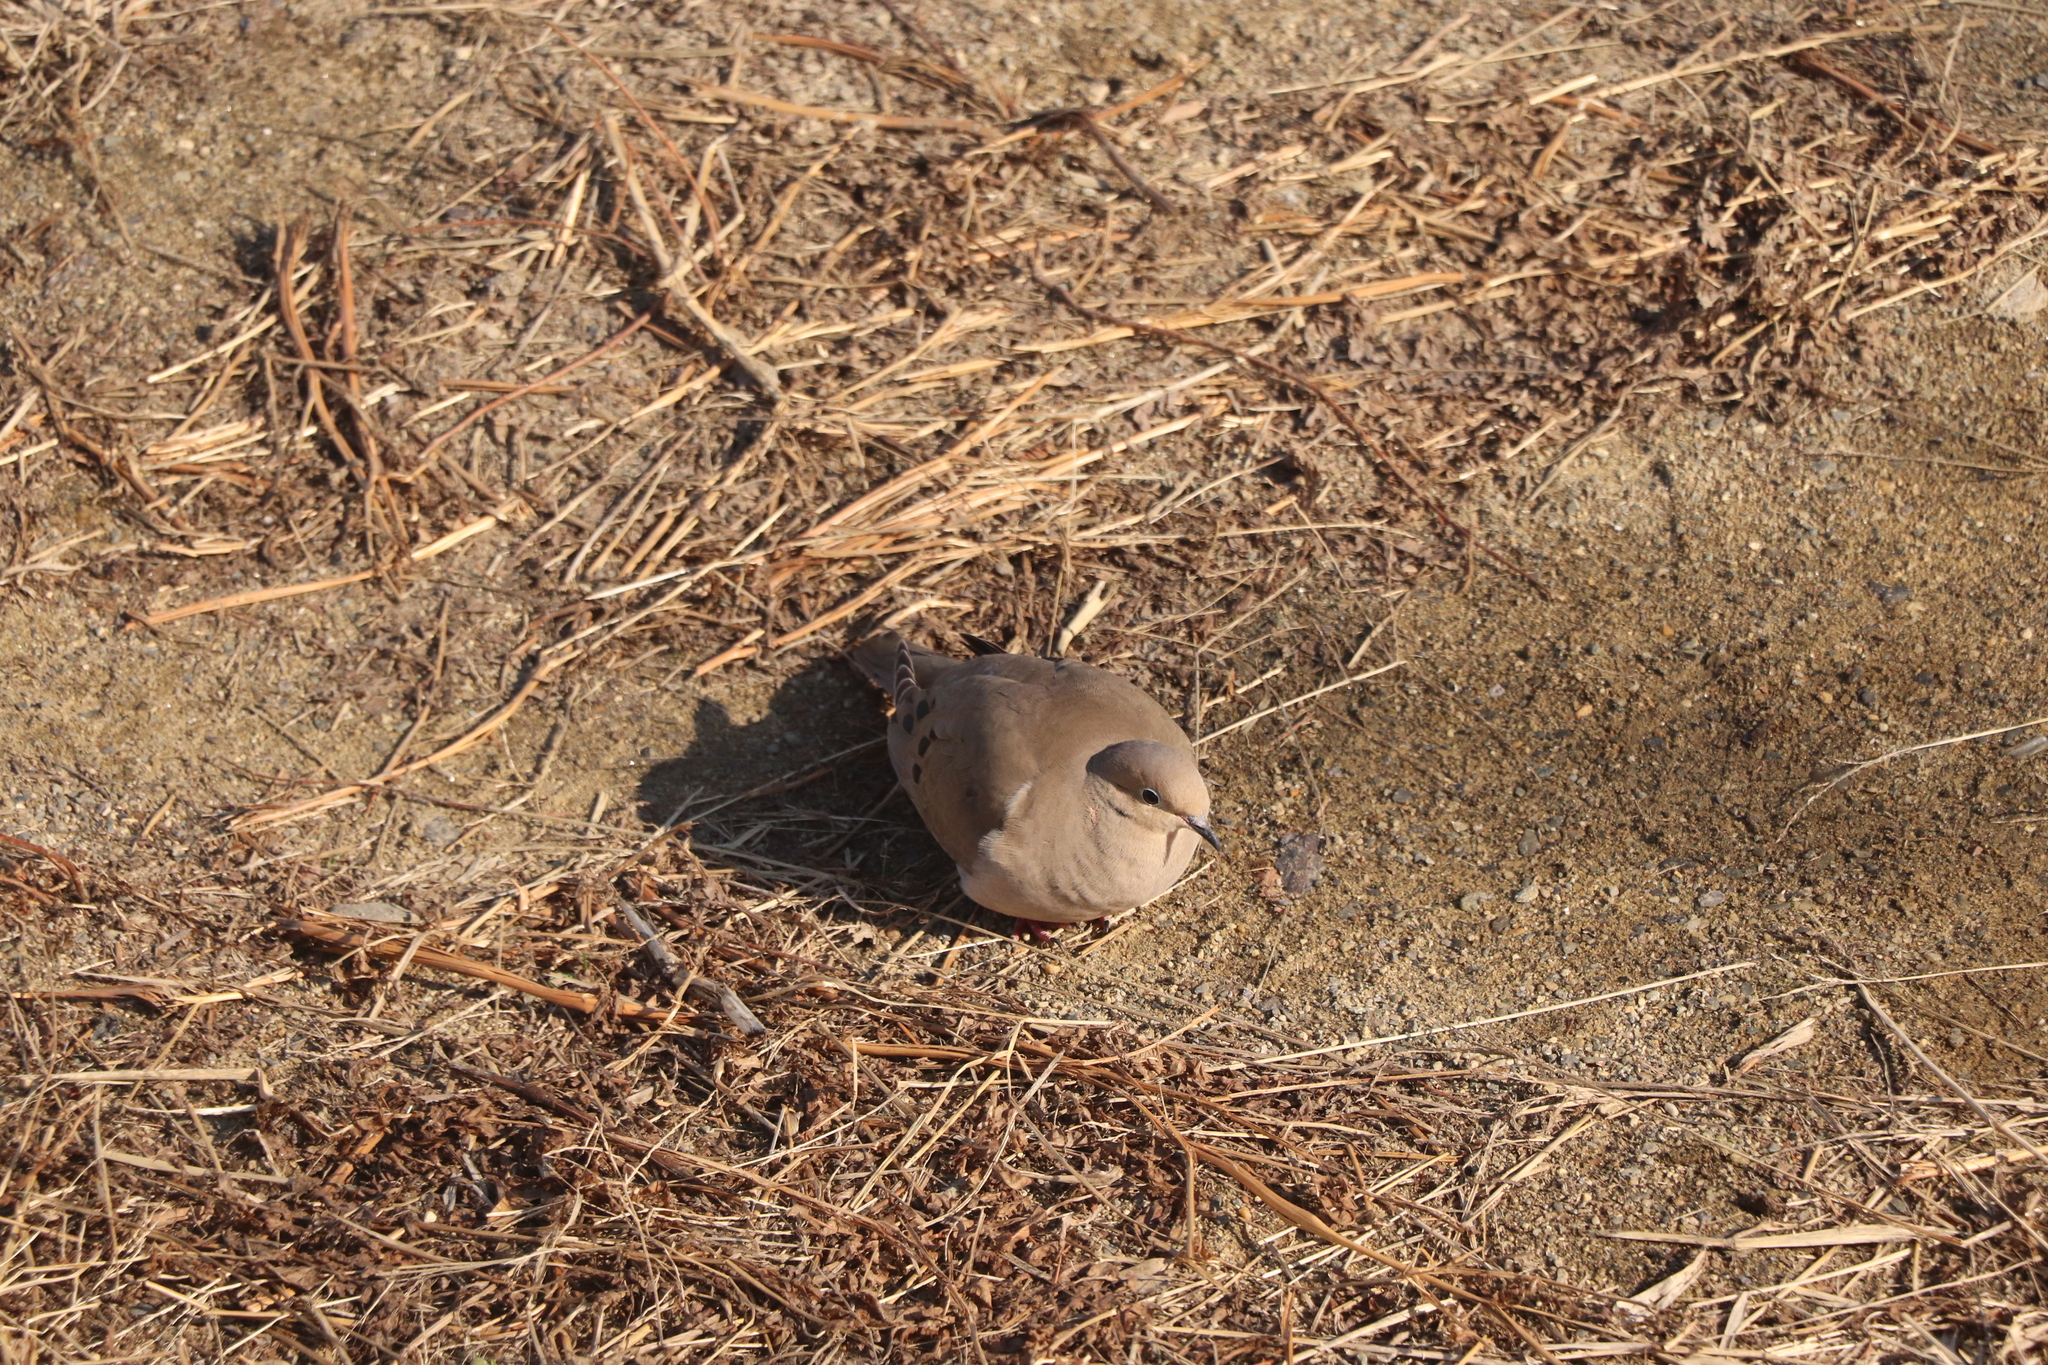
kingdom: Animalia
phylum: Chordata
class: Aves
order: Columbiformes
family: Columbidae
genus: Zenaida
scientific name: Zenaida macroura
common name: Mourning dove
